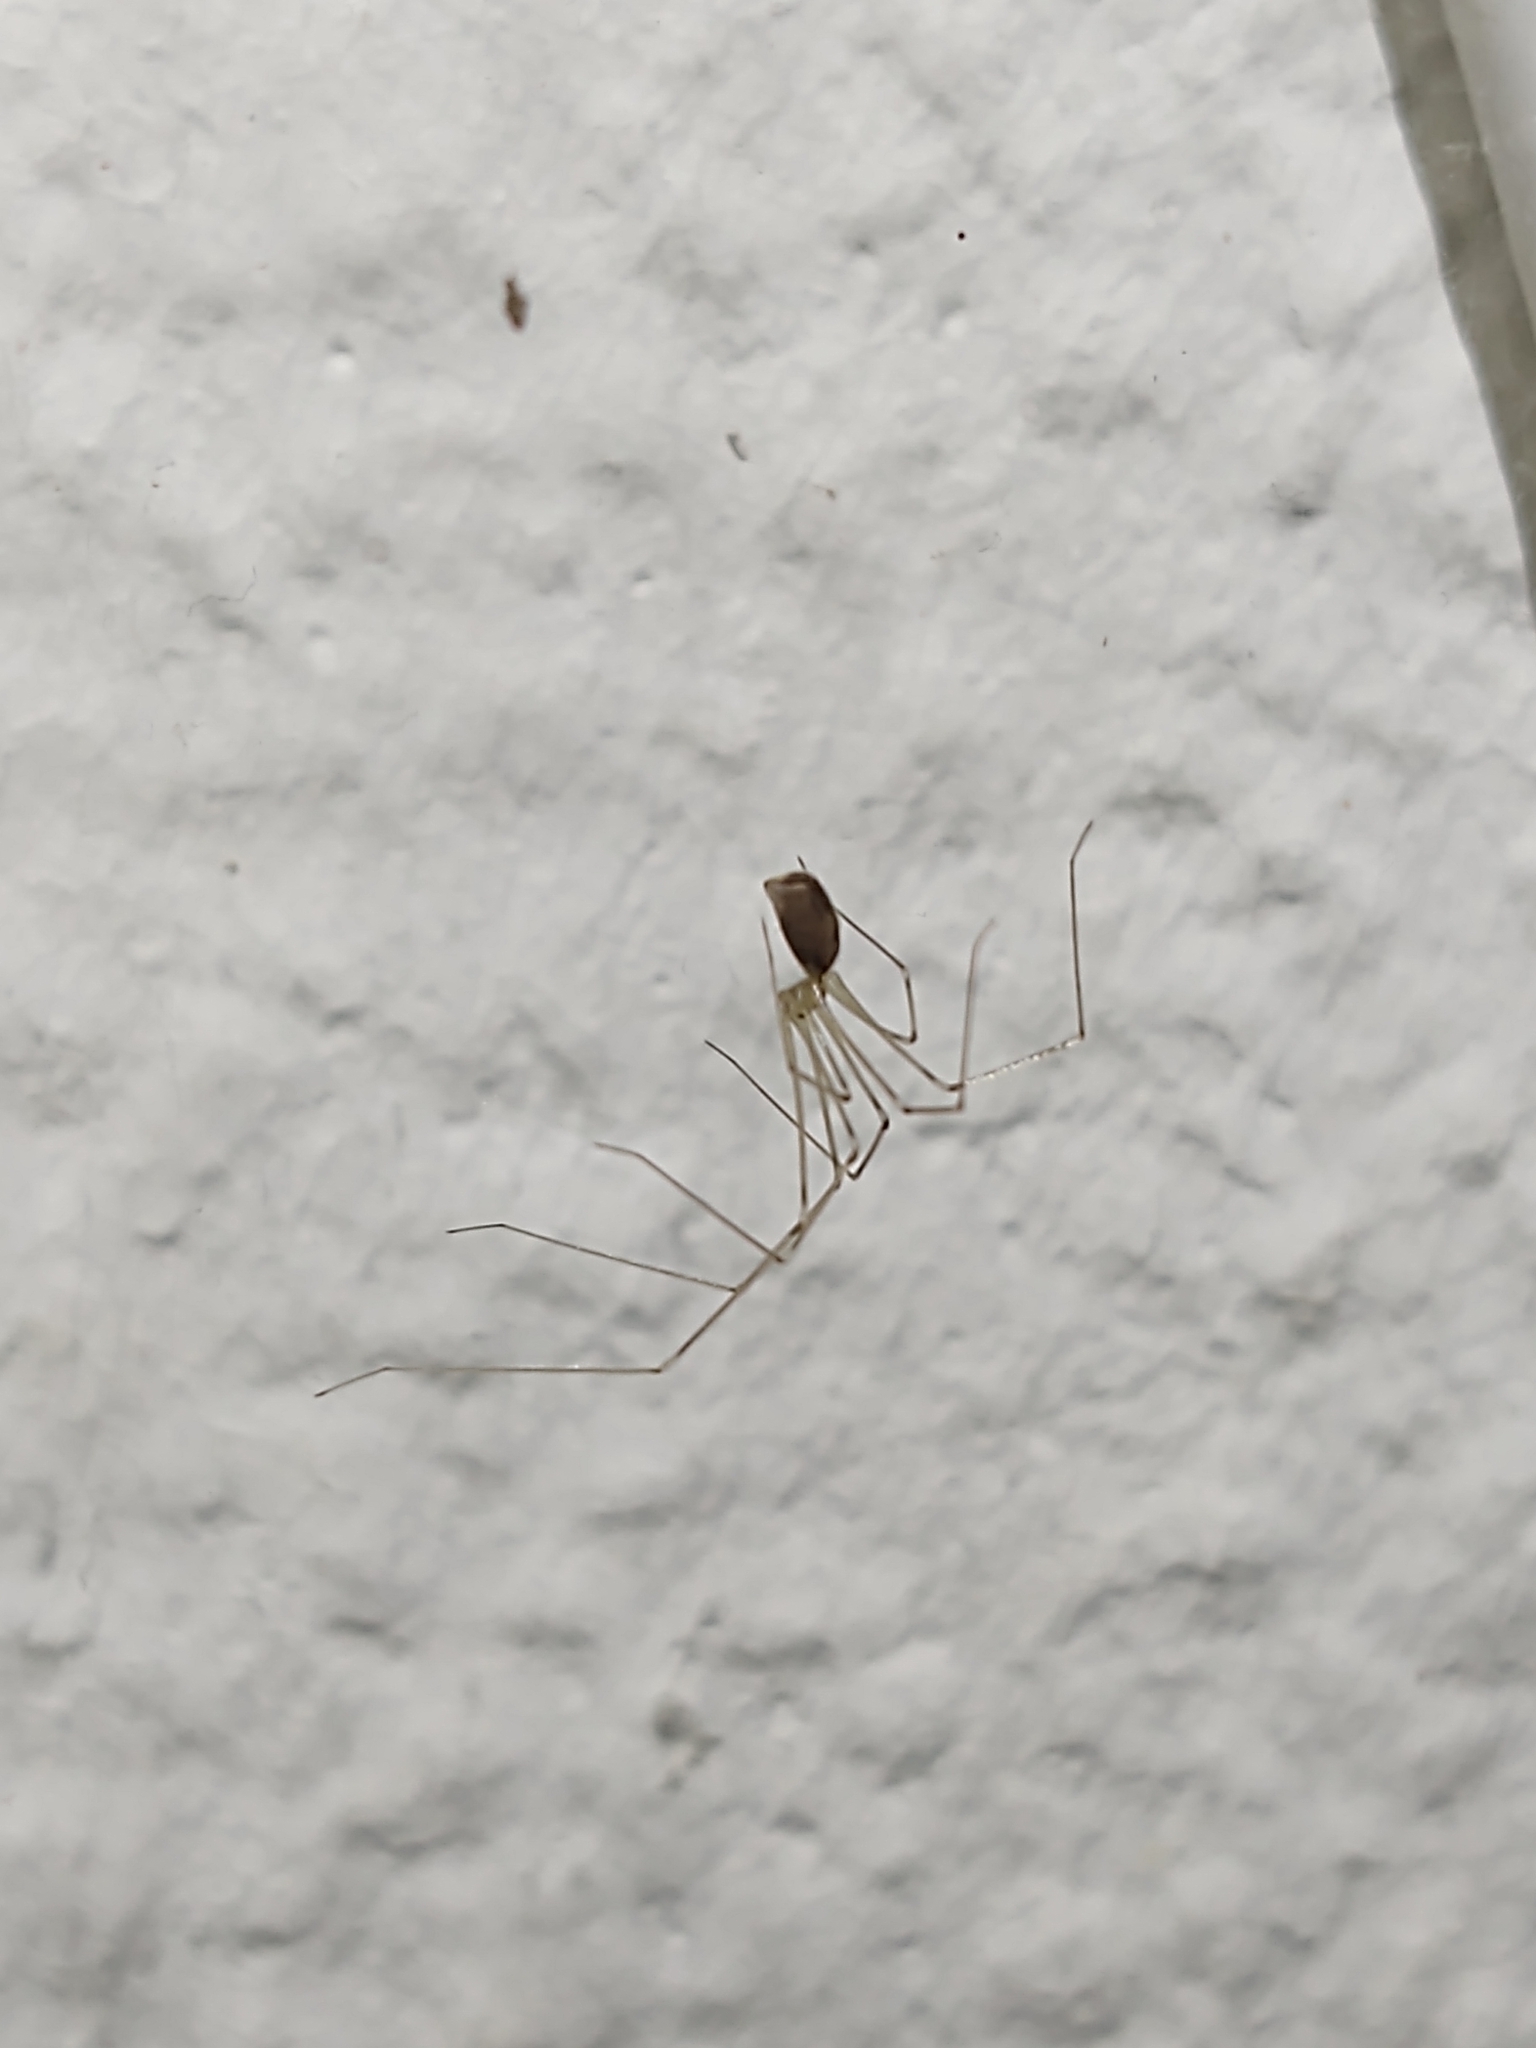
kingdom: Animalia
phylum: Arthropoda
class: Arachnida
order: Araneae
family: Pholcidae
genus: Pholcus
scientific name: Pholcus phalangioides
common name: Longbodied cellar spider
